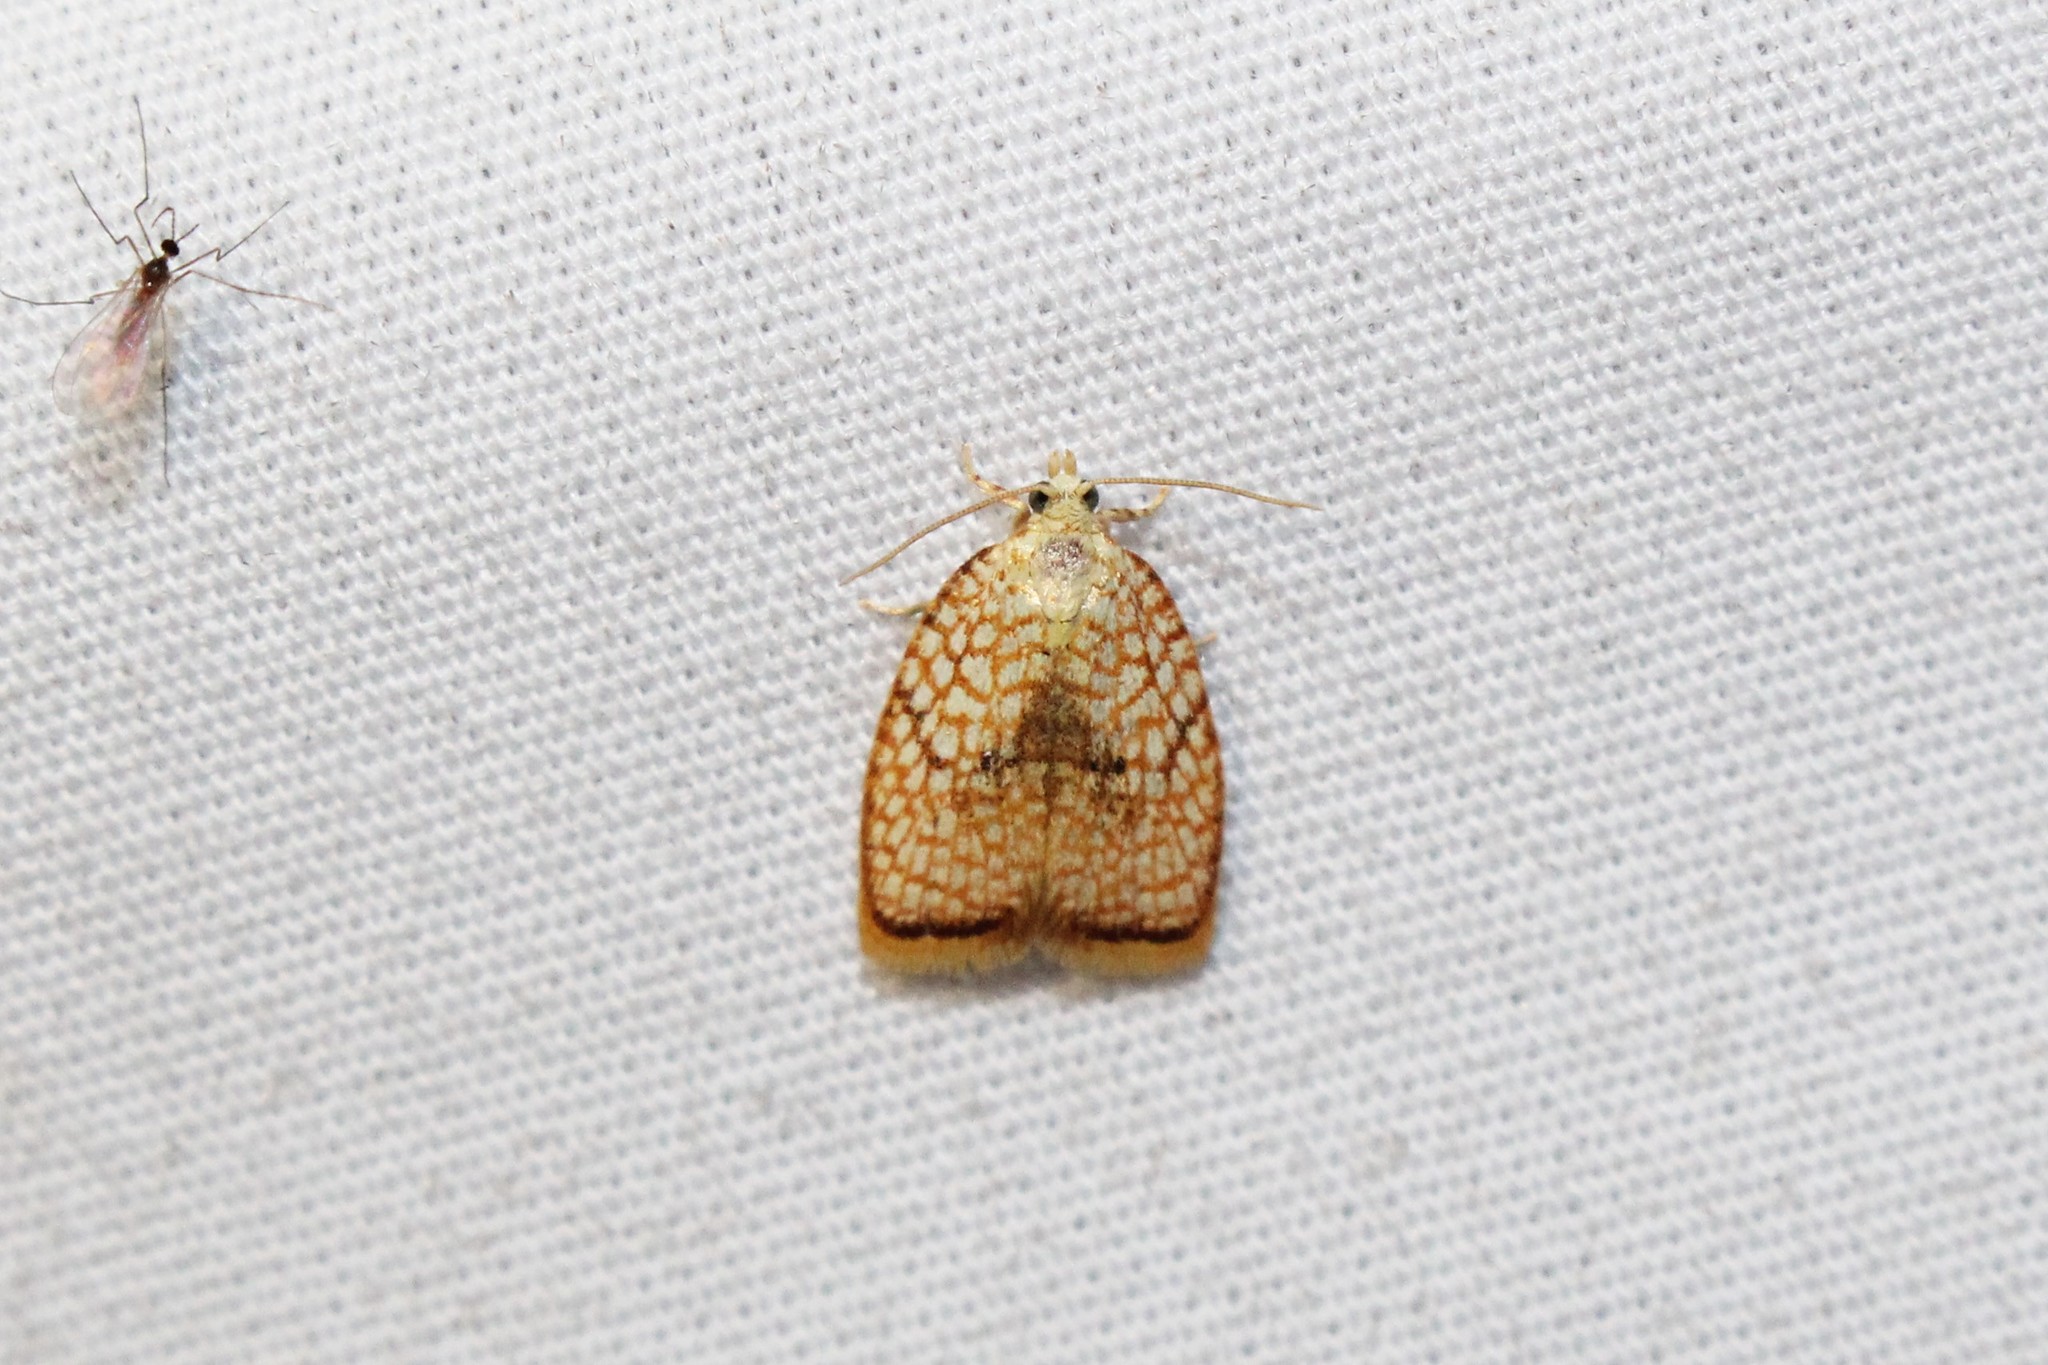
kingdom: Animalia
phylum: Arthropoda
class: Insecta
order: Lepidoptera
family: Tortricidae
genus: Acleris
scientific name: Acleris forsskaleana
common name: Maple button
